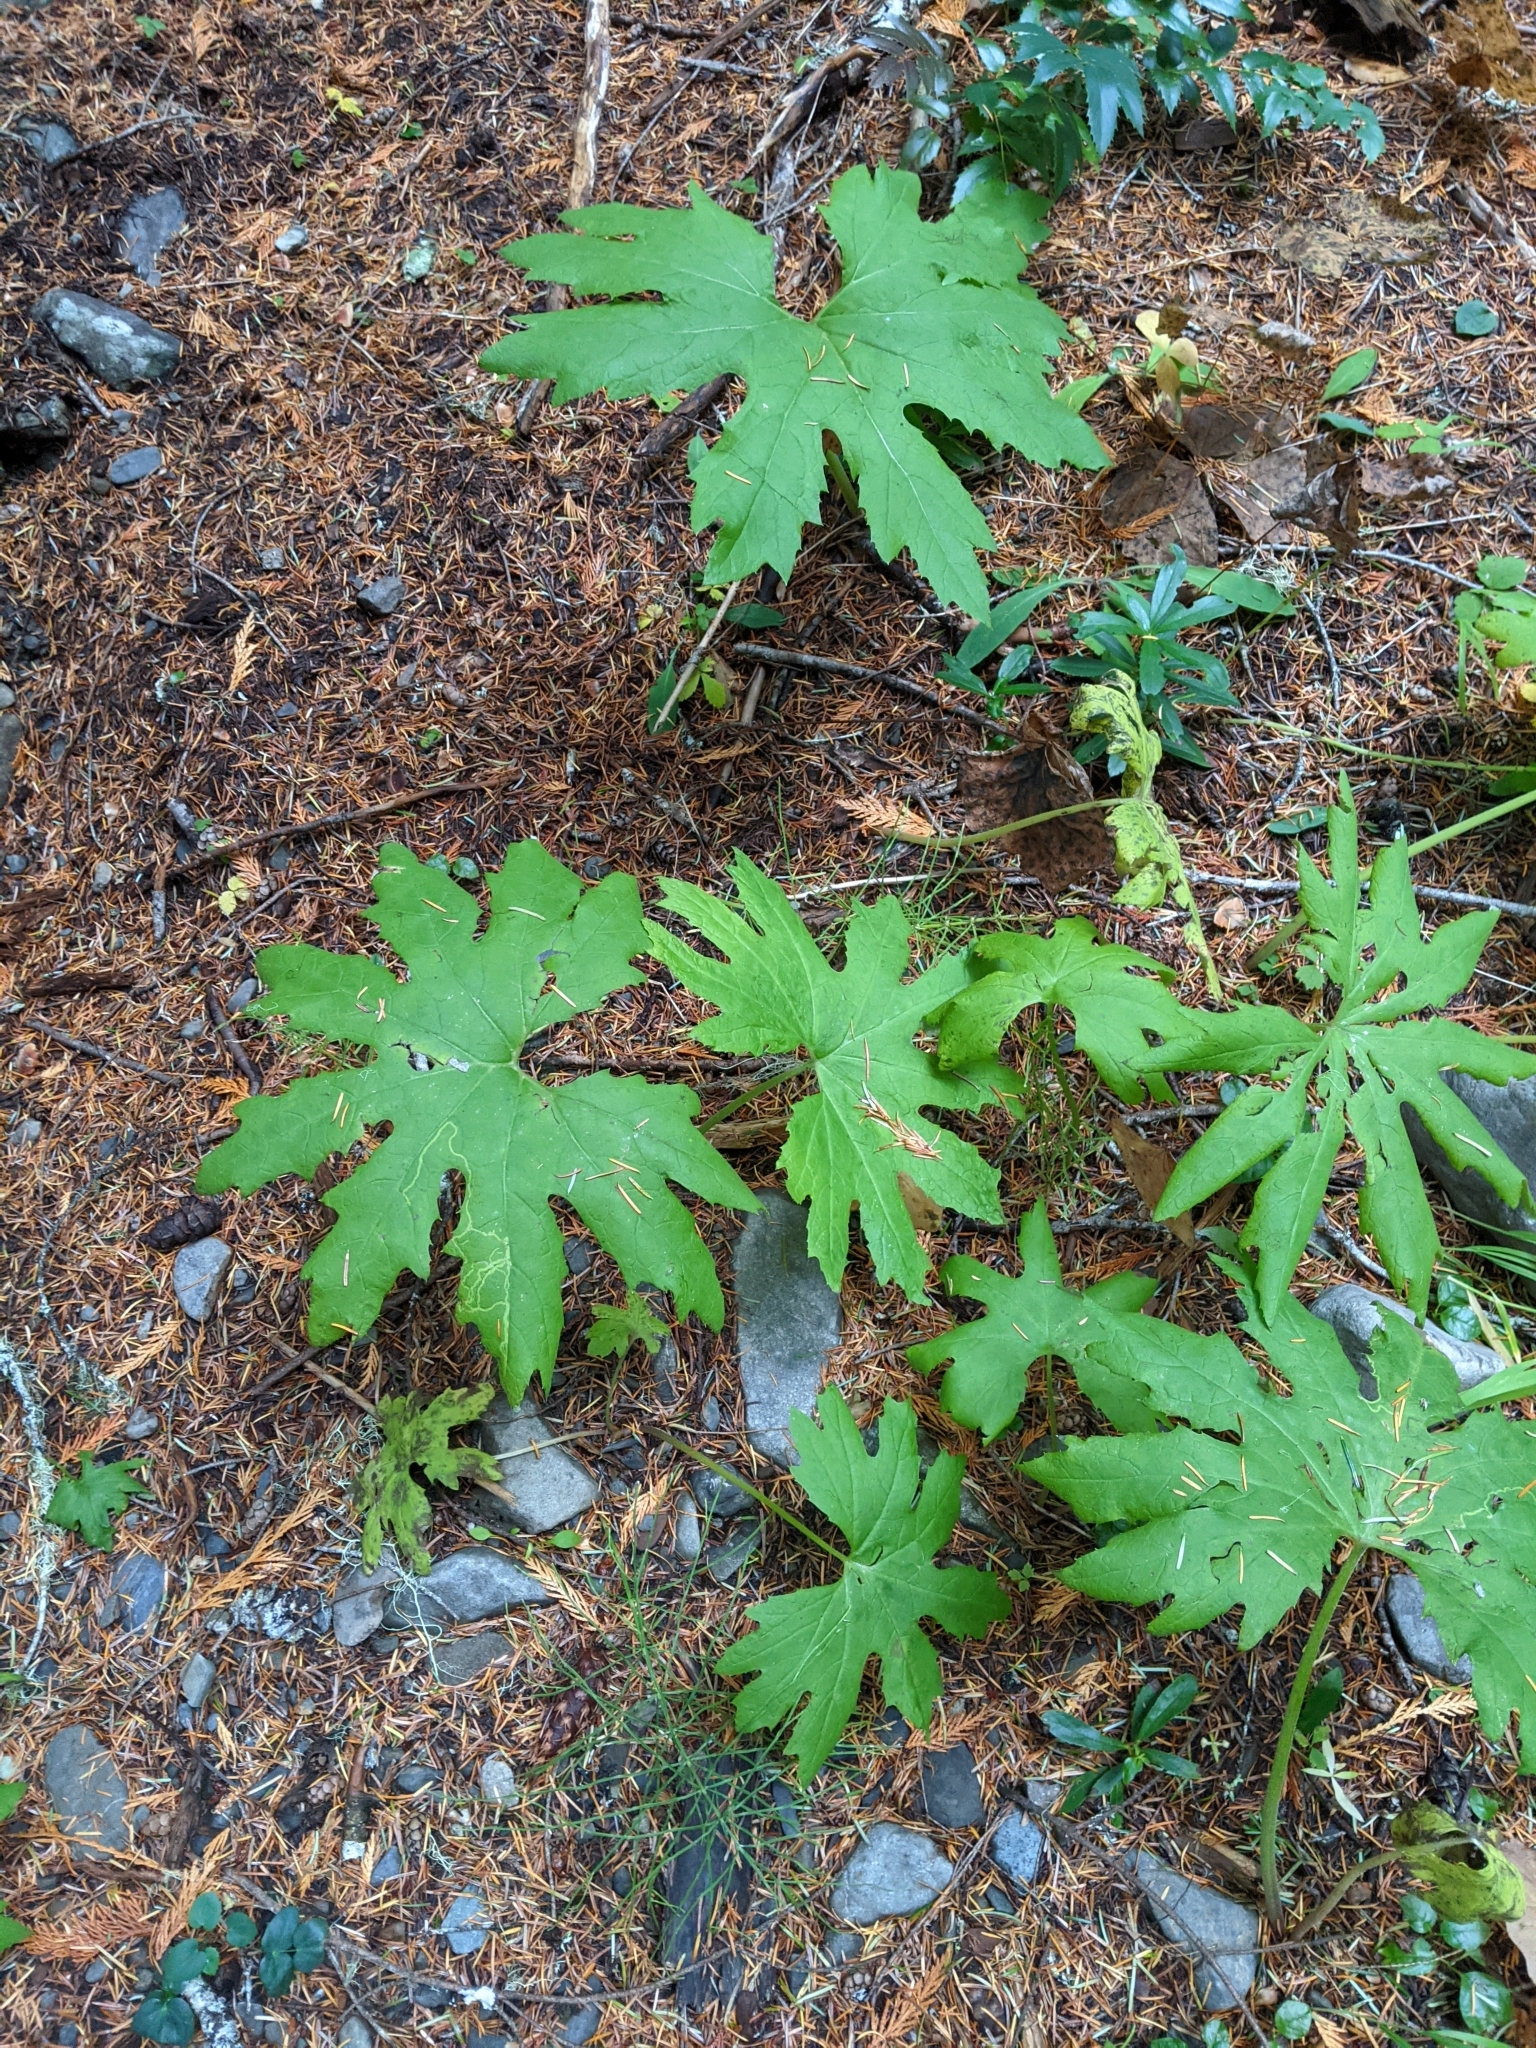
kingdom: Plantae
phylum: Tracheophyta
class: Magnoliopsida
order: Asterales
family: Asteraceae
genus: Petasites
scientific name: Petasites frigidus
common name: Arctic butterbur
